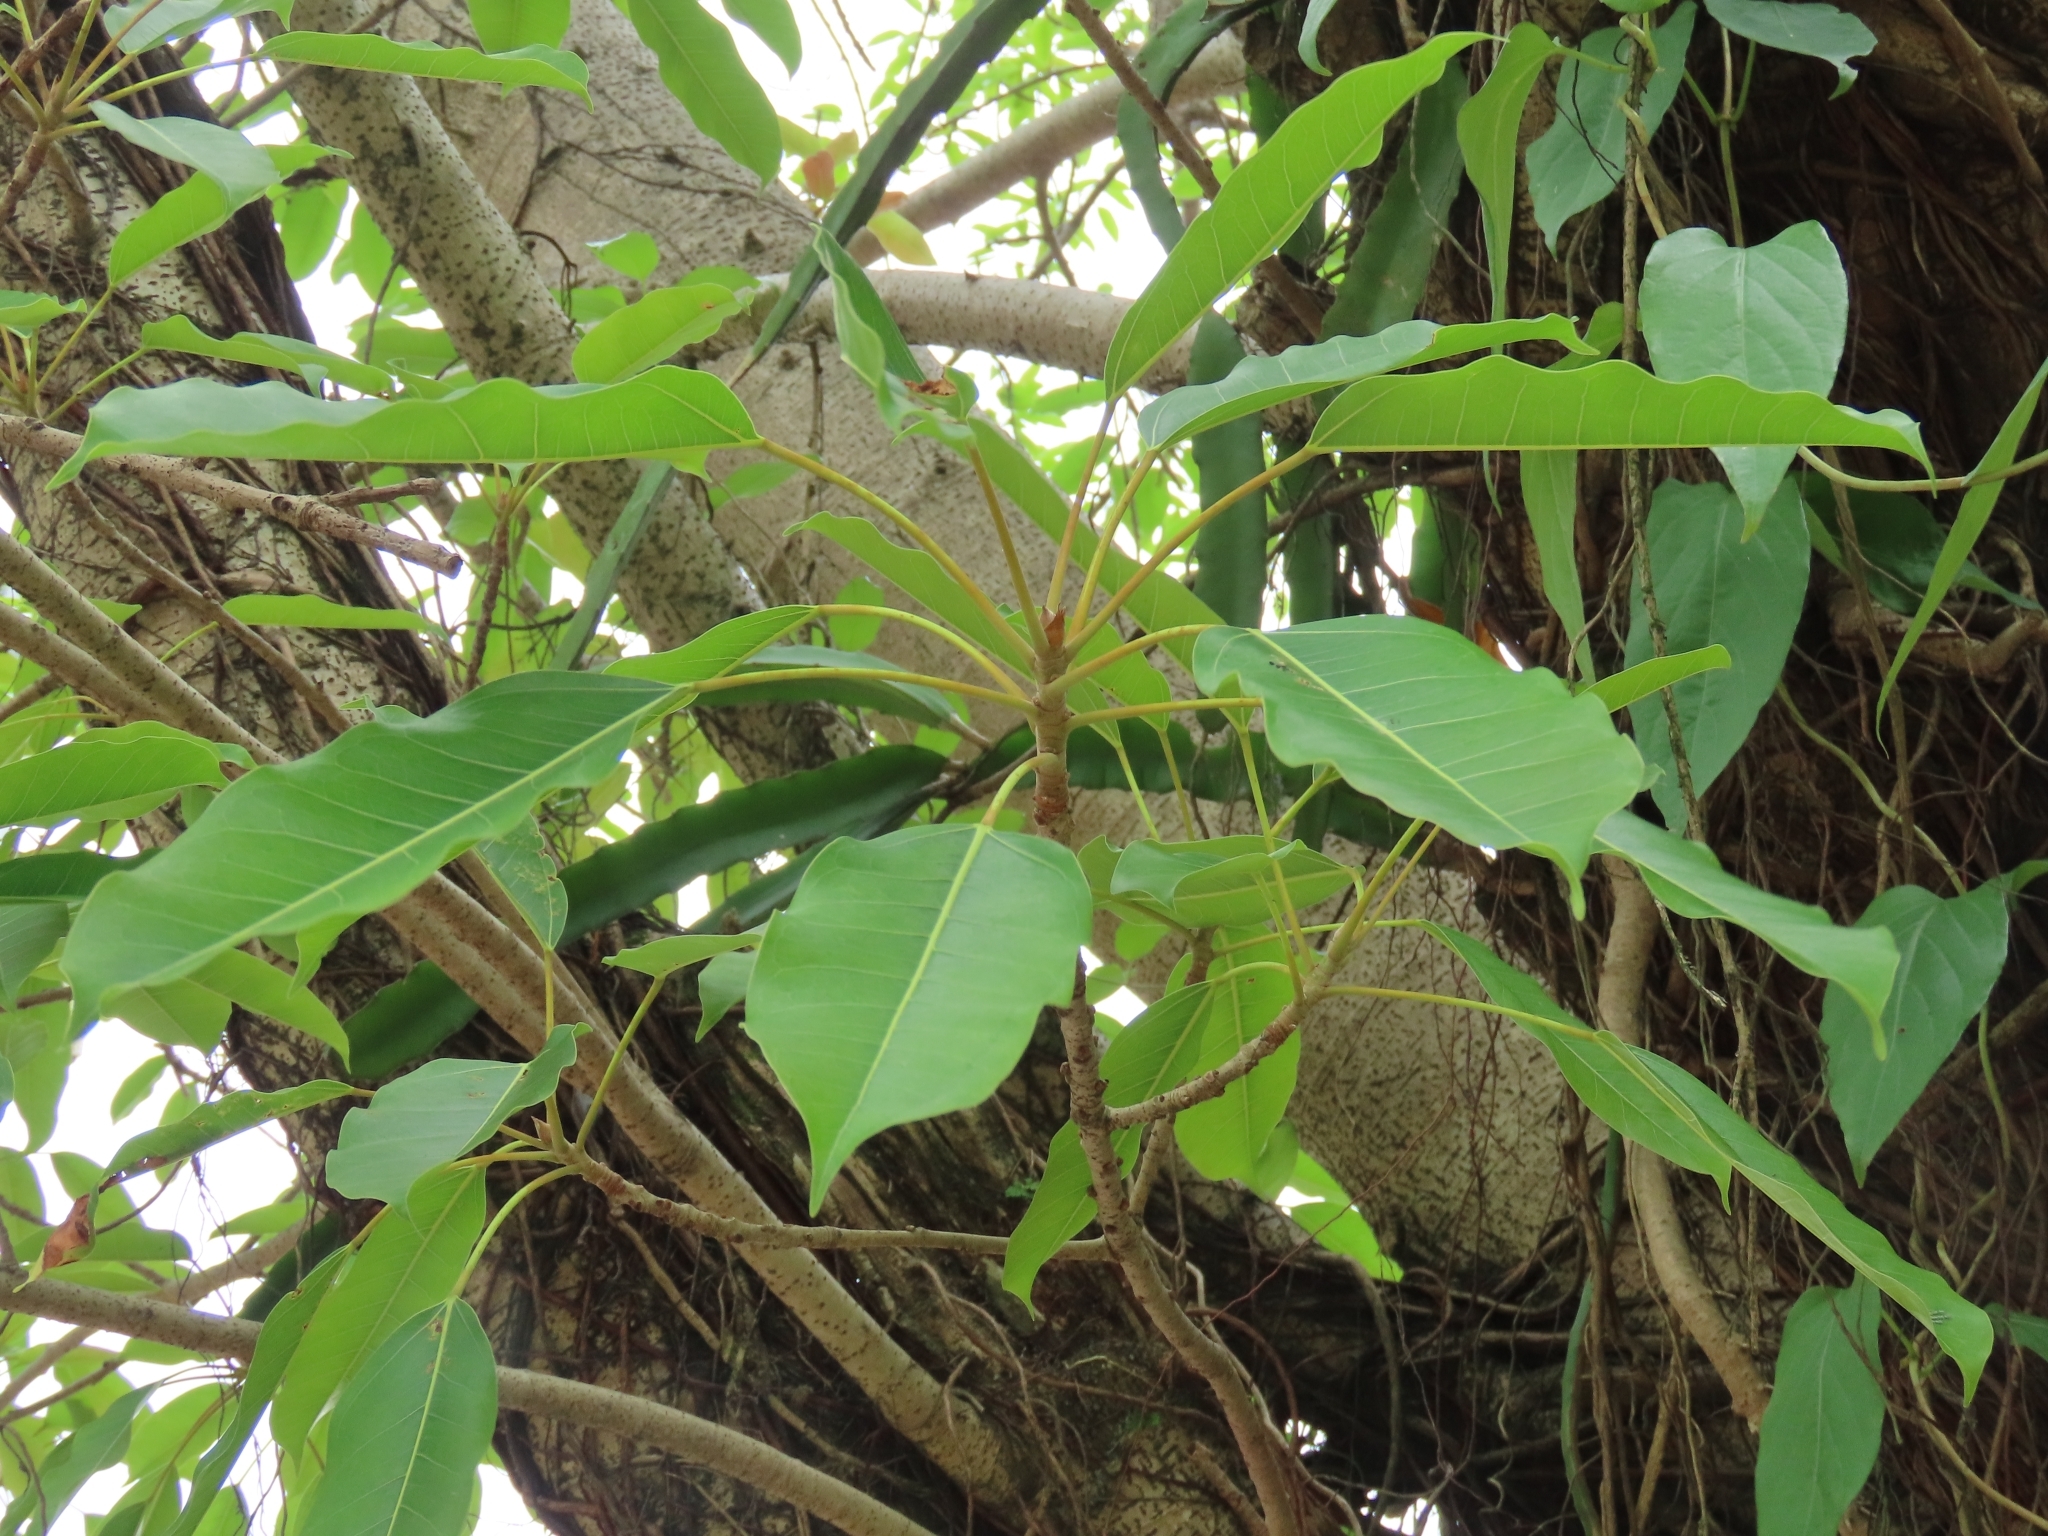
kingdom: Plantae
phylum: Tracheophyta
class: Magnoliopsida
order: Rosales
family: Moraceae
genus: Ficus
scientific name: Ficus caulocarpa
